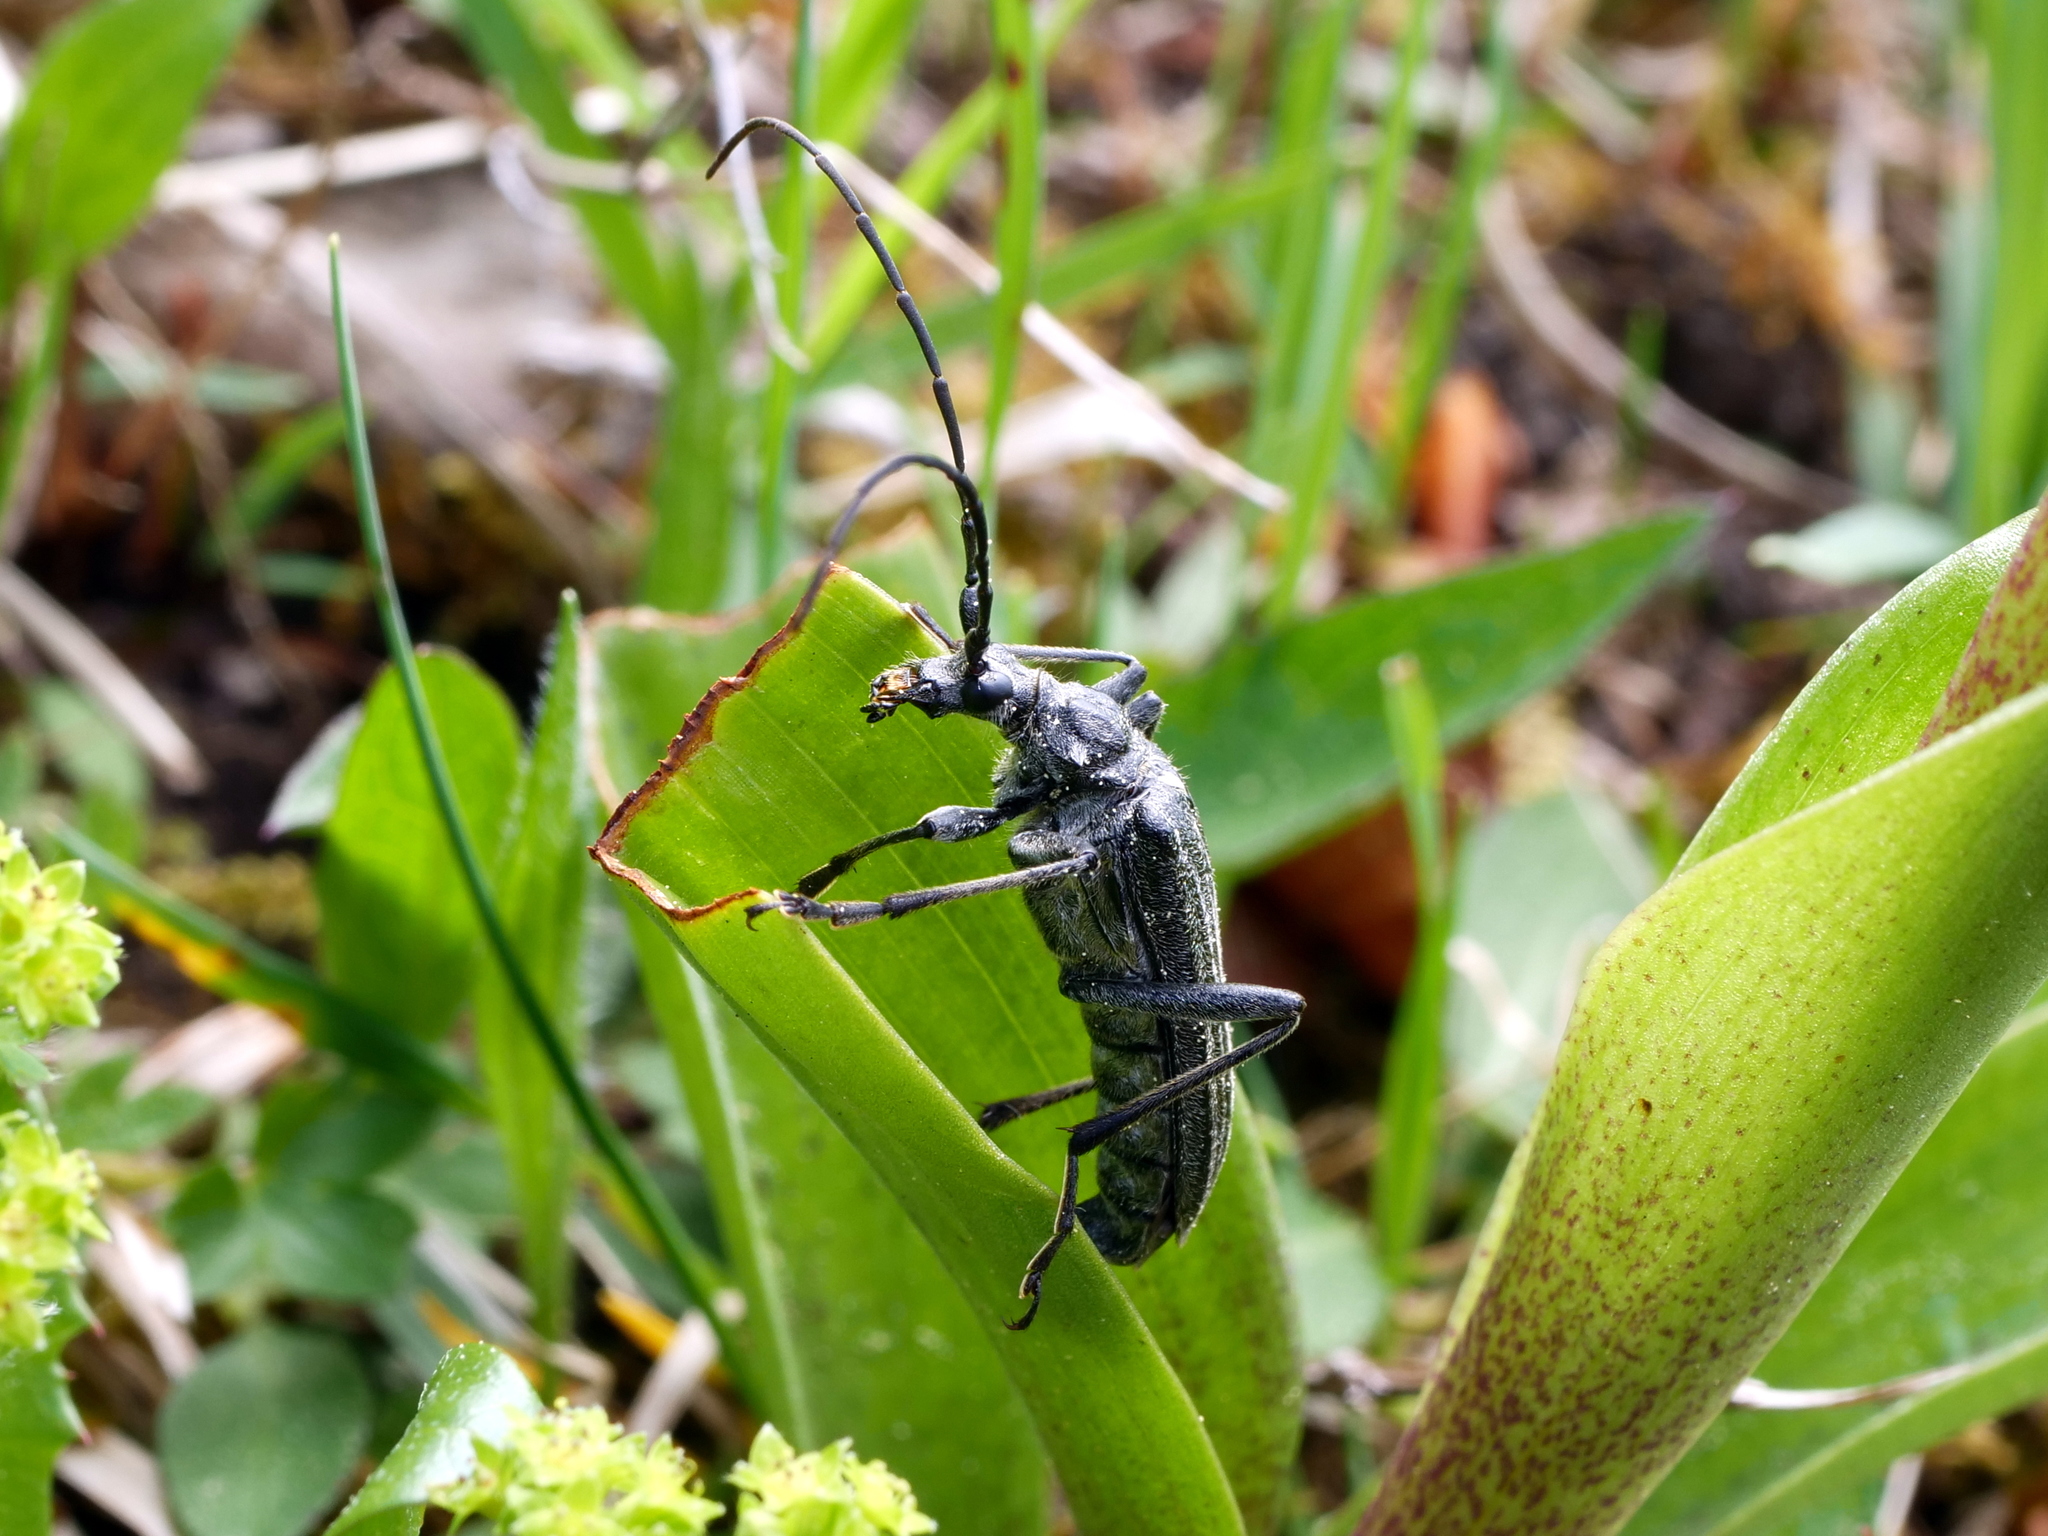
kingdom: Animalia
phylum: Arthropoda
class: Insecta
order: Coleoptera
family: Cerambycidae
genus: Oxymirus
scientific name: Oxymirus cursor
